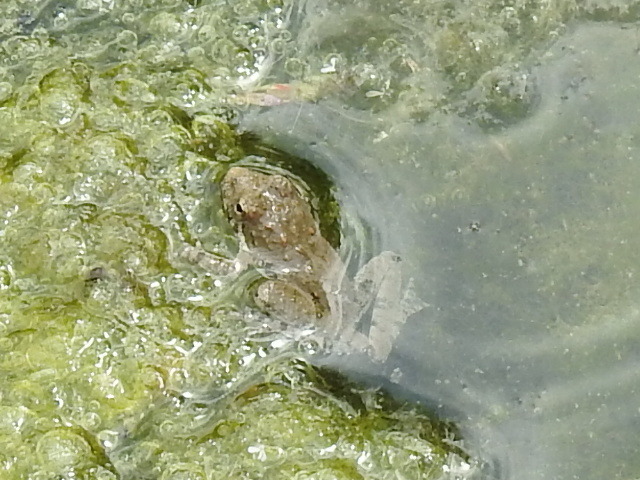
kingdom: Animalia
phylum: Chordata
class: Amphibia
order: Anura
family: Hylidae
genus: Acris
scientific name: Acris blanchardi
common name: Blanchard's cricket frog
